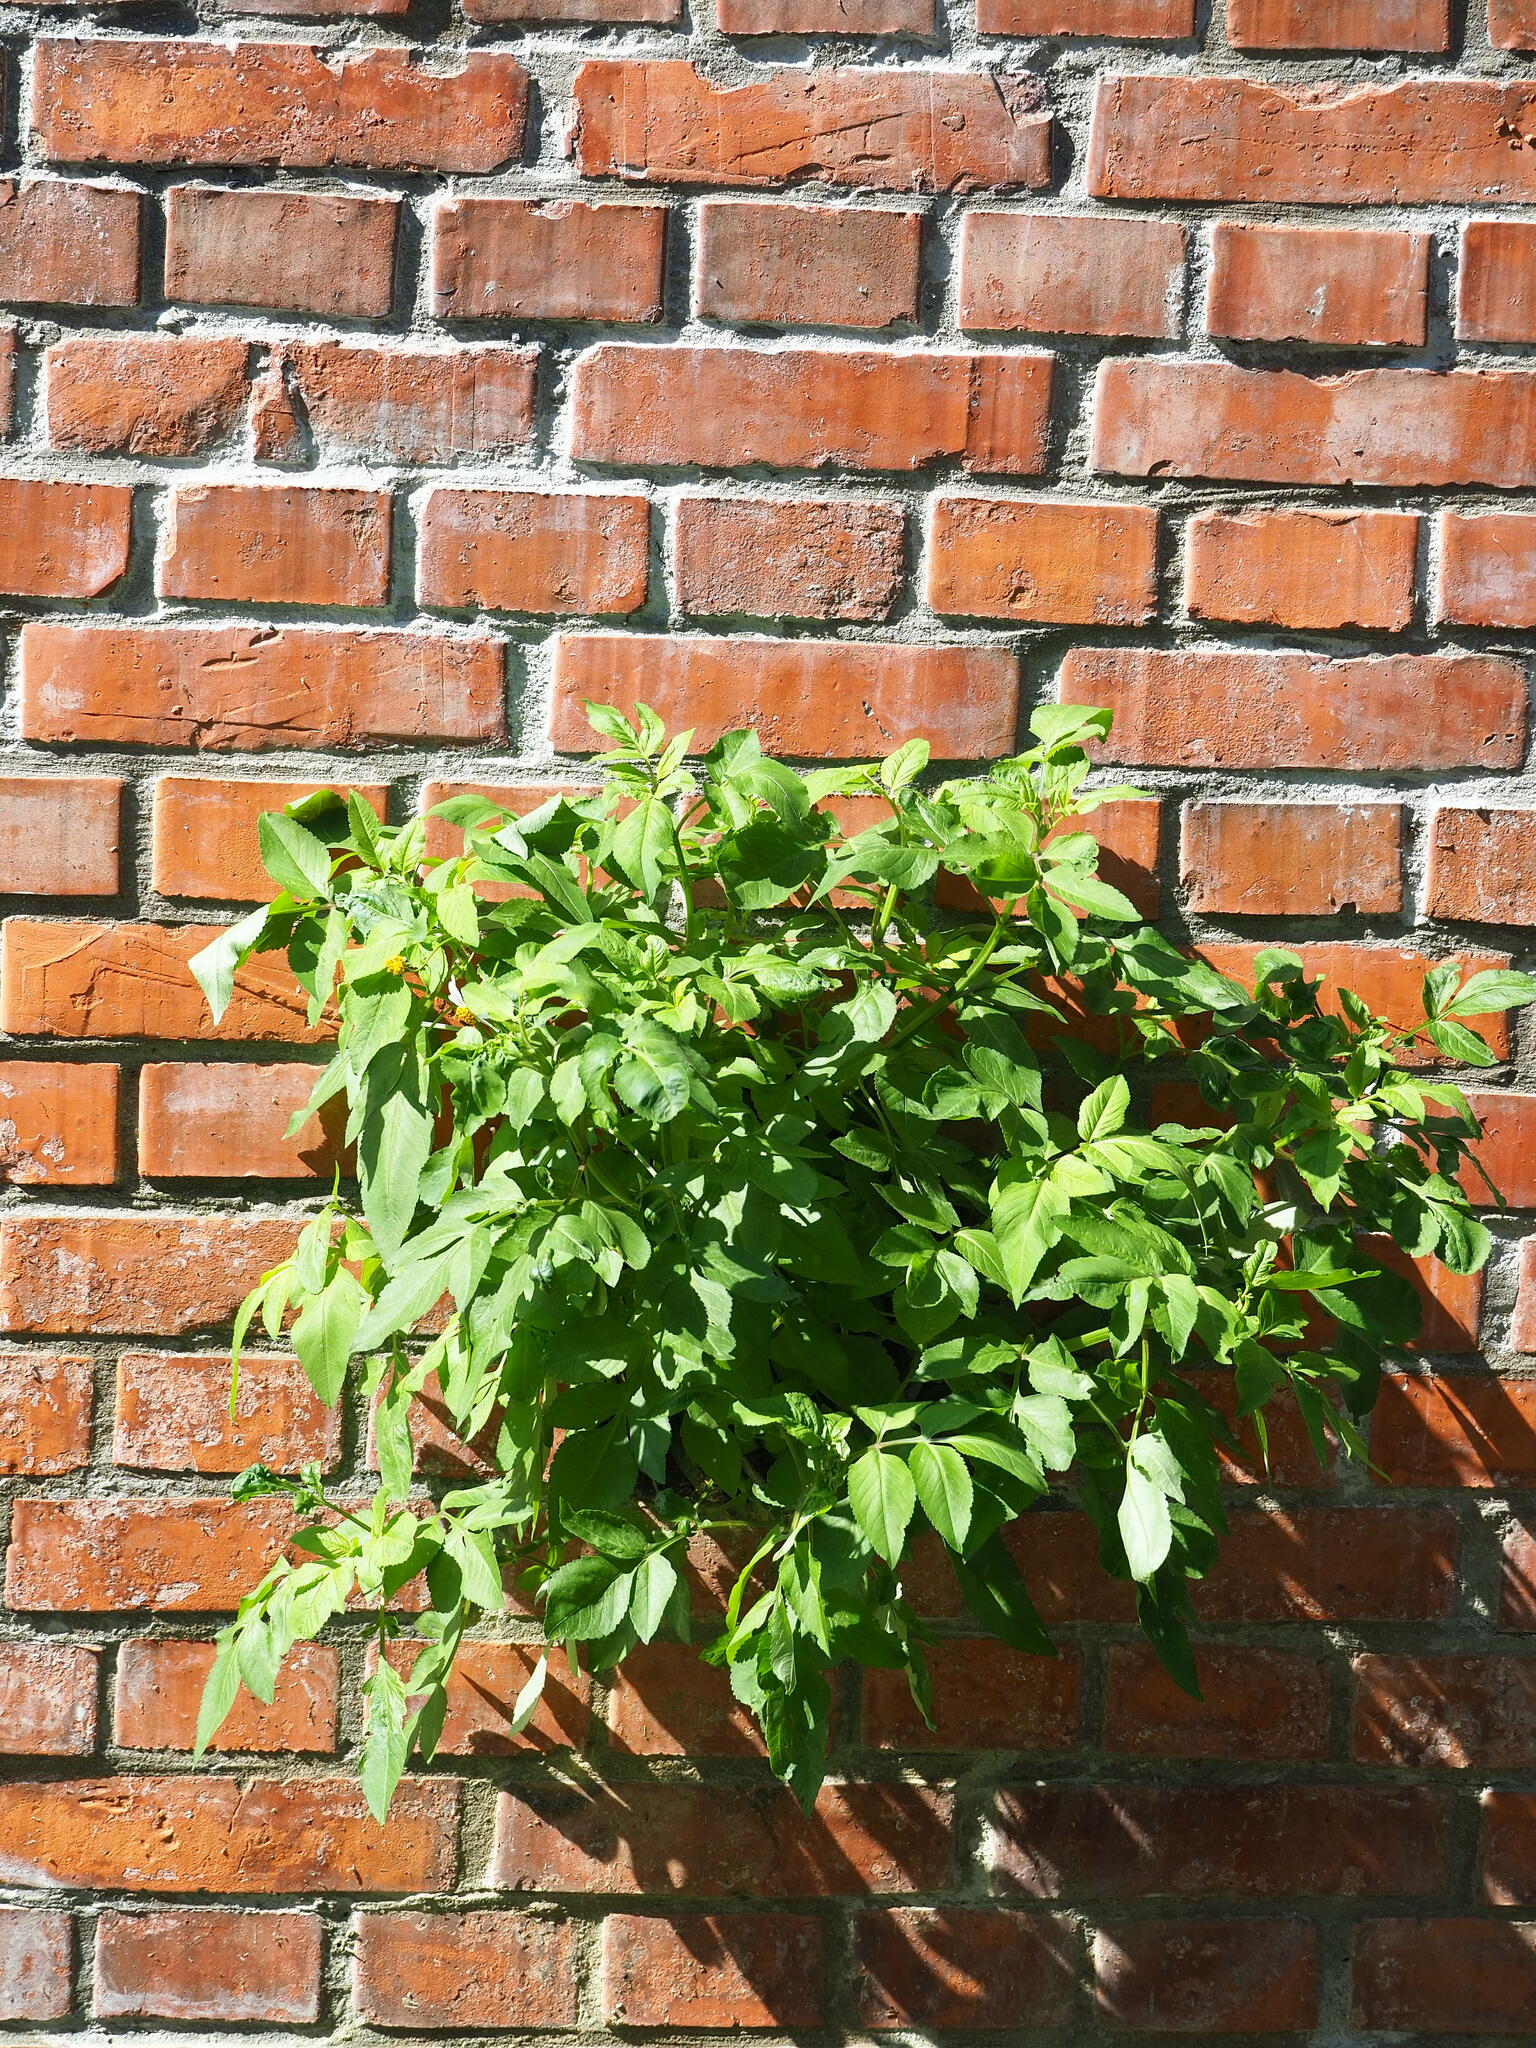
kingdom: Plantae
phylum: Tracheophyta
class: Magnoliopsida
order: Asterales
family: Asteraceae
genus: Bidens
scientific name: Bidens alba
